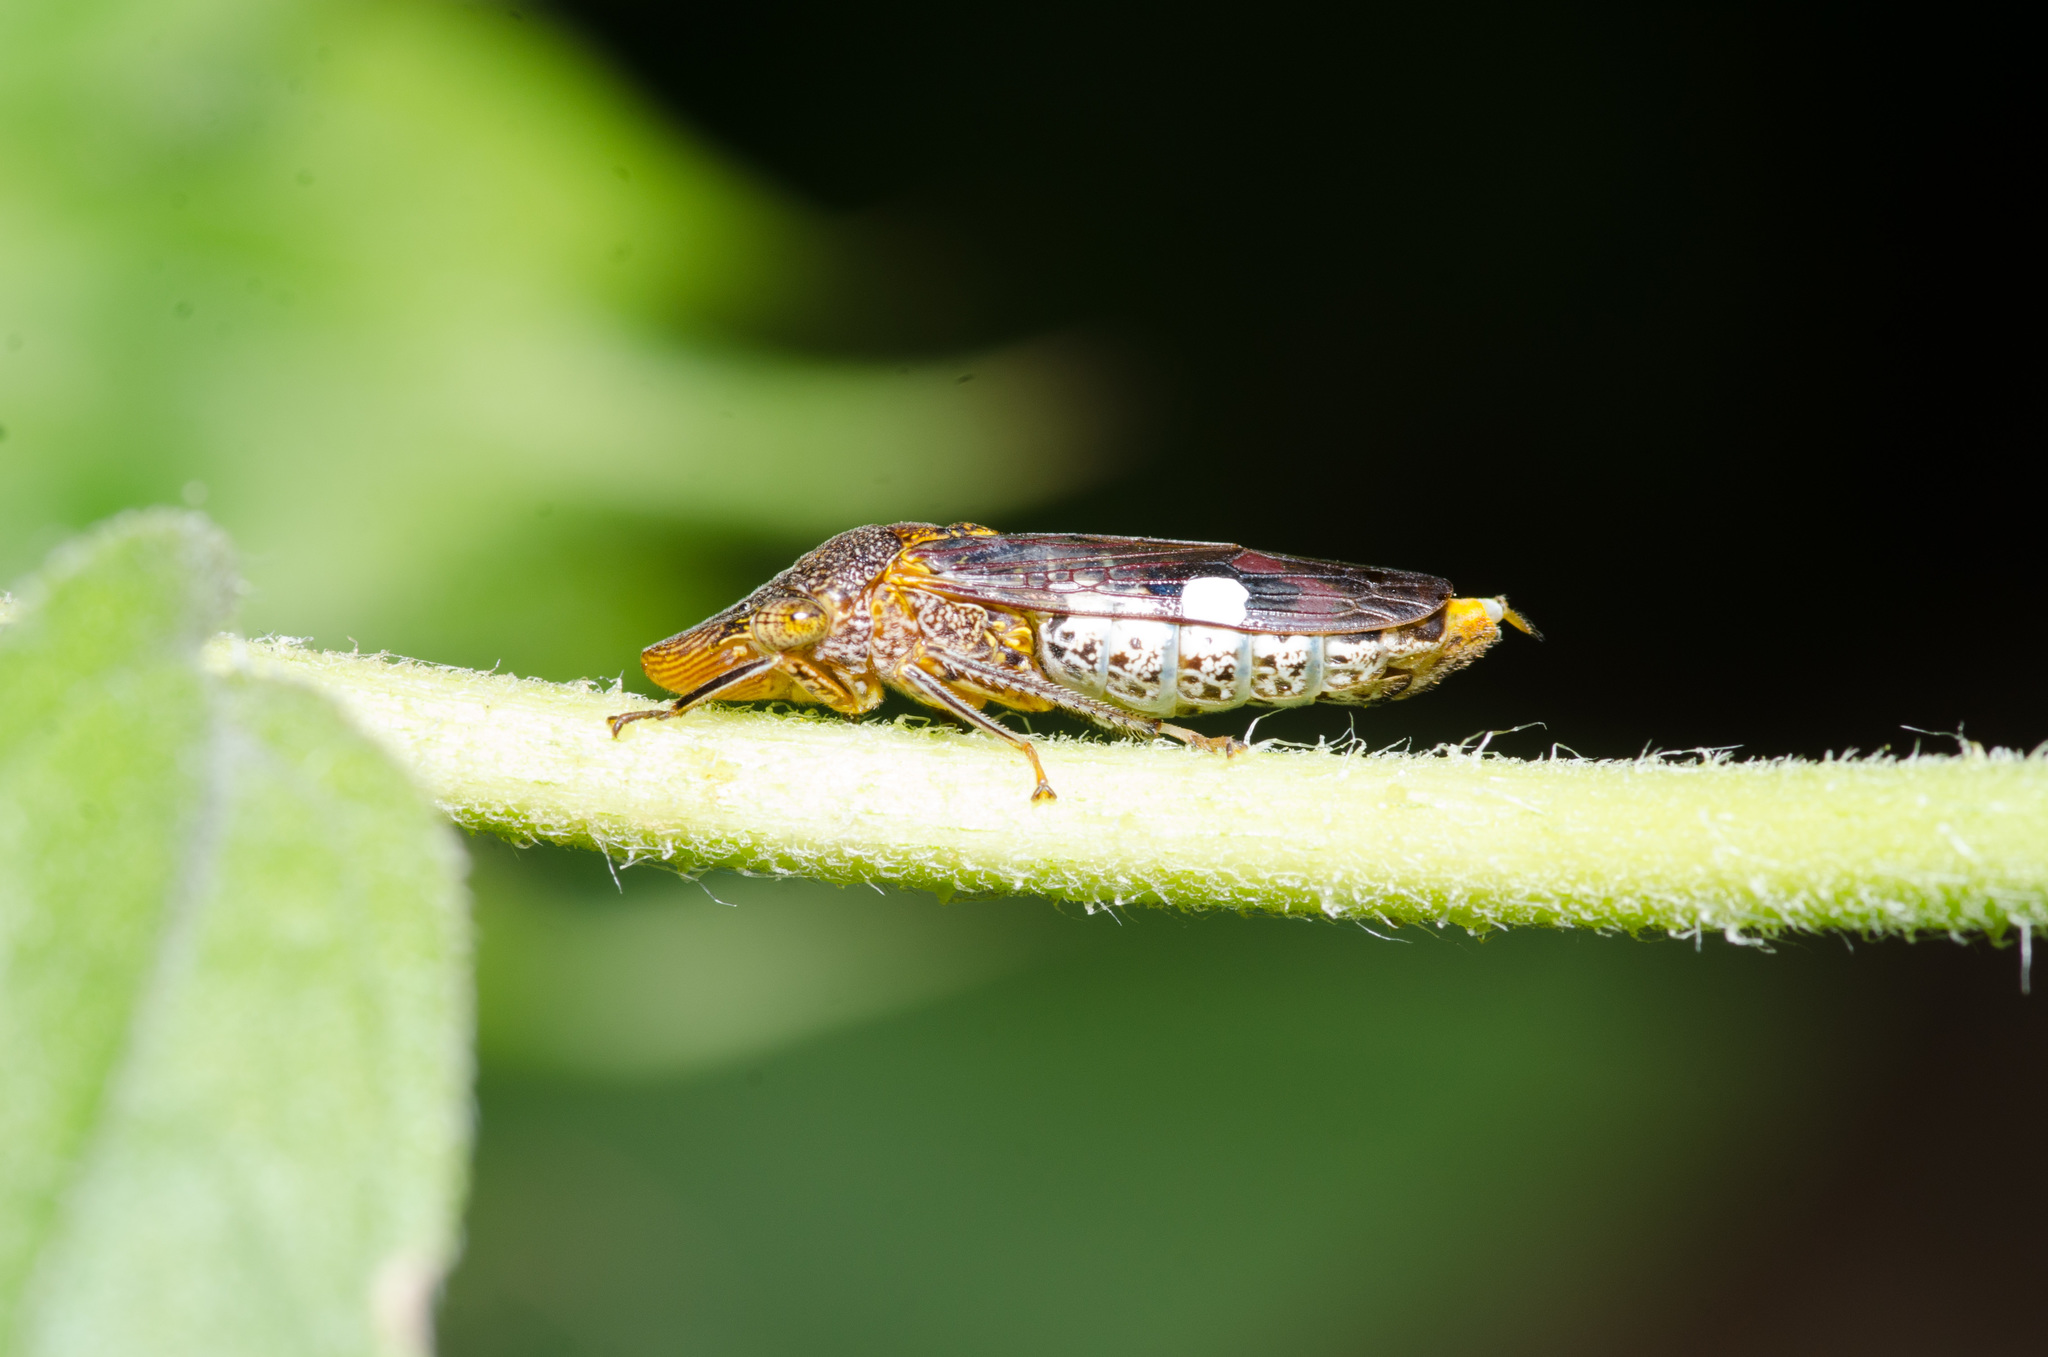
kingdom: Animalia
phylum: Arthropoda
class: Insecta
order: Hemiptera
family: Cicadellidae
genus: Homalodisca
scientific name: Homalodisca vitripennis
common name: Glassy-winged sharpshooter
